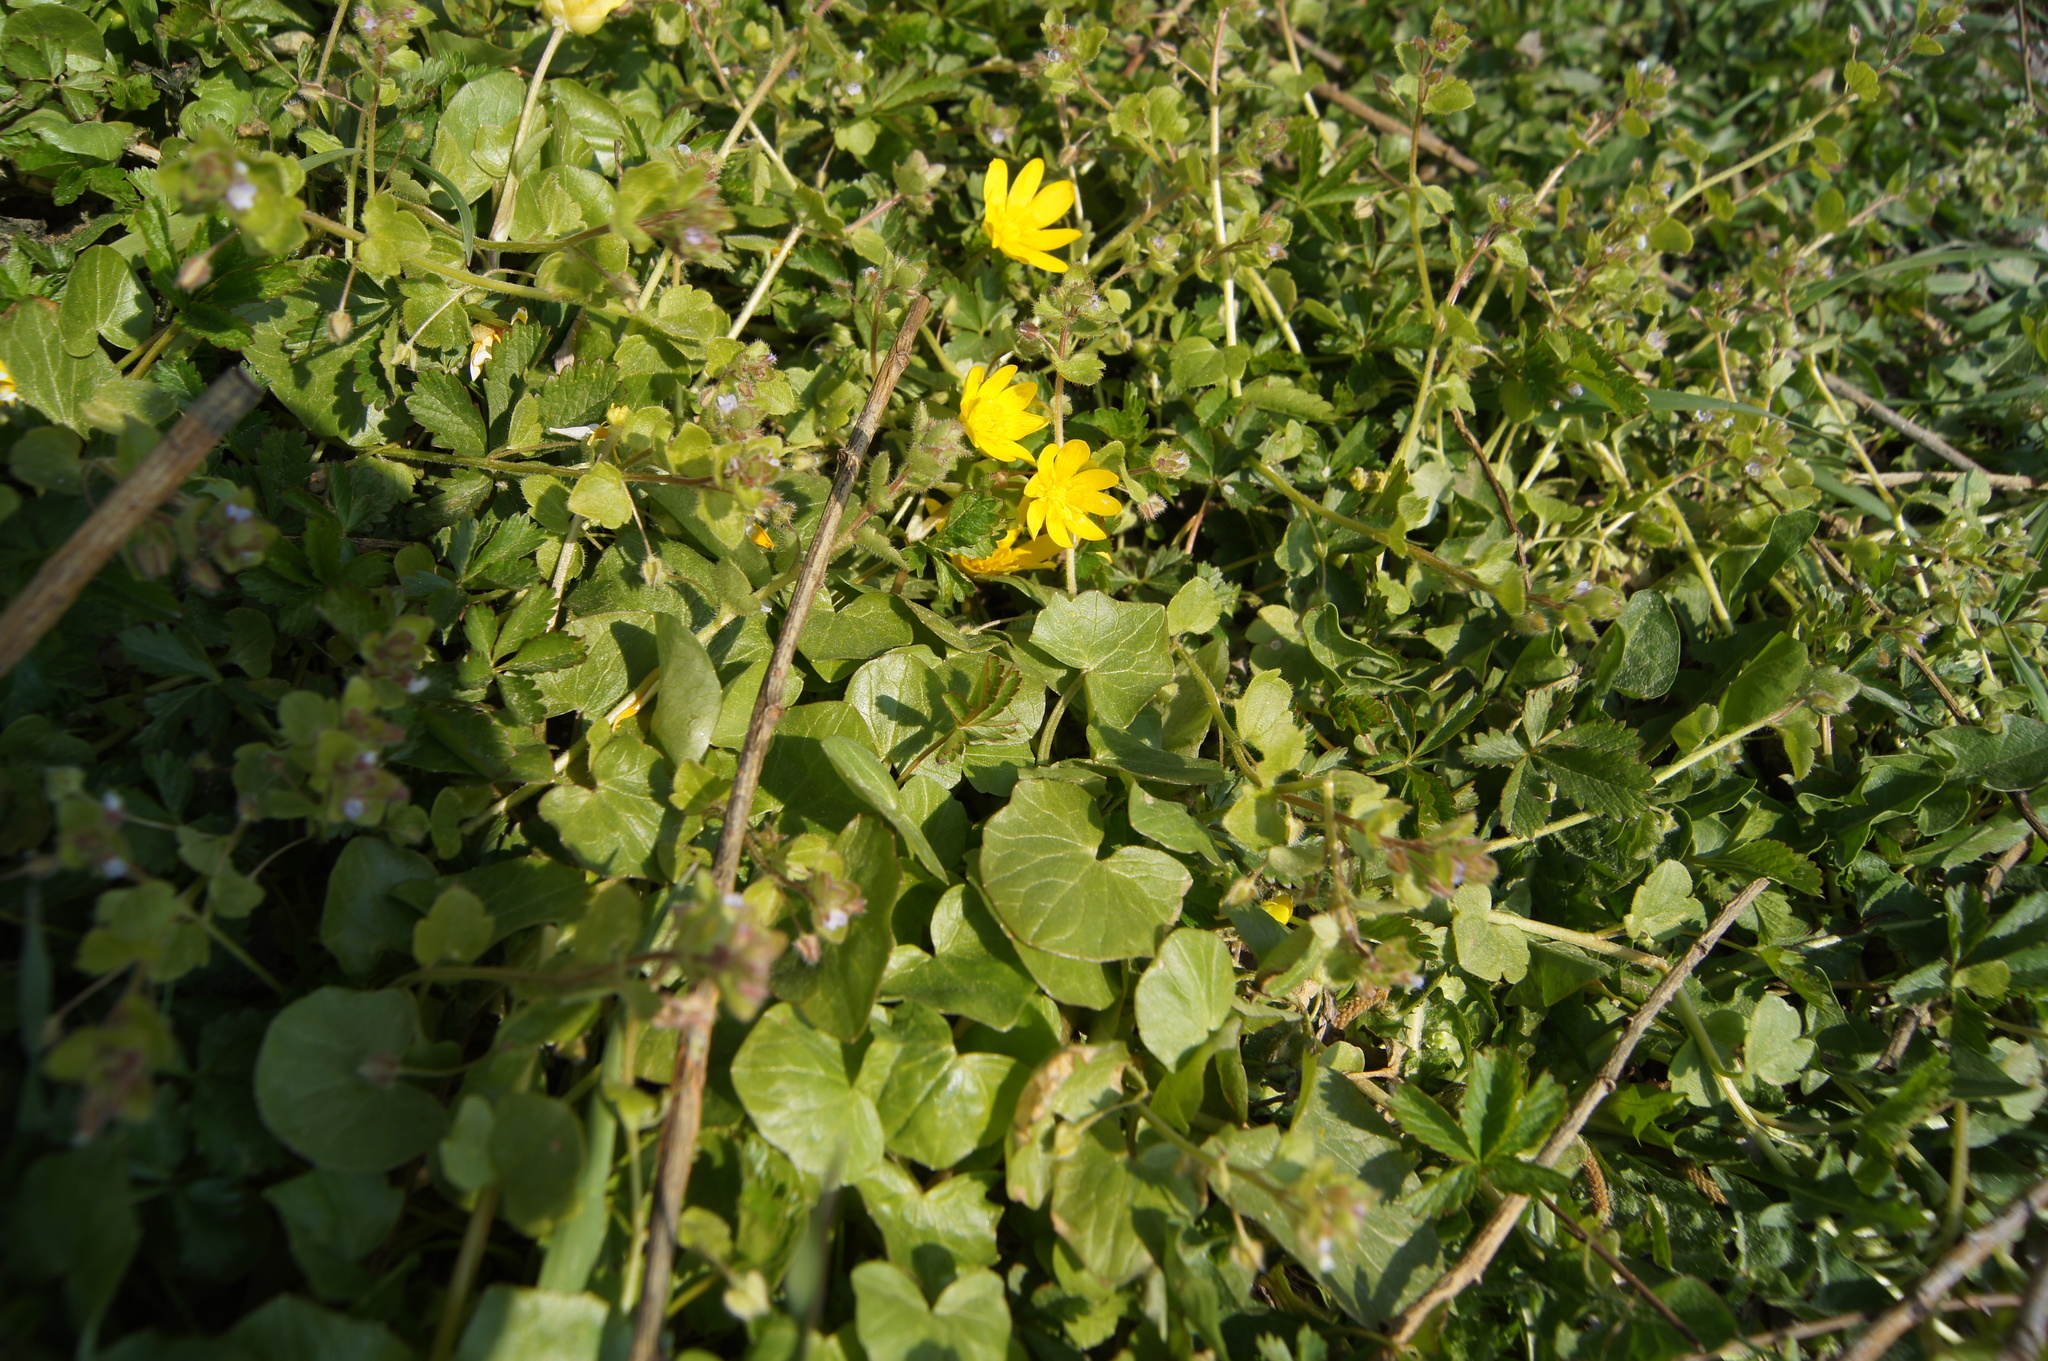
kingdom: Plantae
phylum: Tracheophyta
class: Magnoliopsida
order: Ranunculales
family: Ranunculaceae
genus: Ficaria
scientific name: Ficaria verna
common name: Lesser celandine
